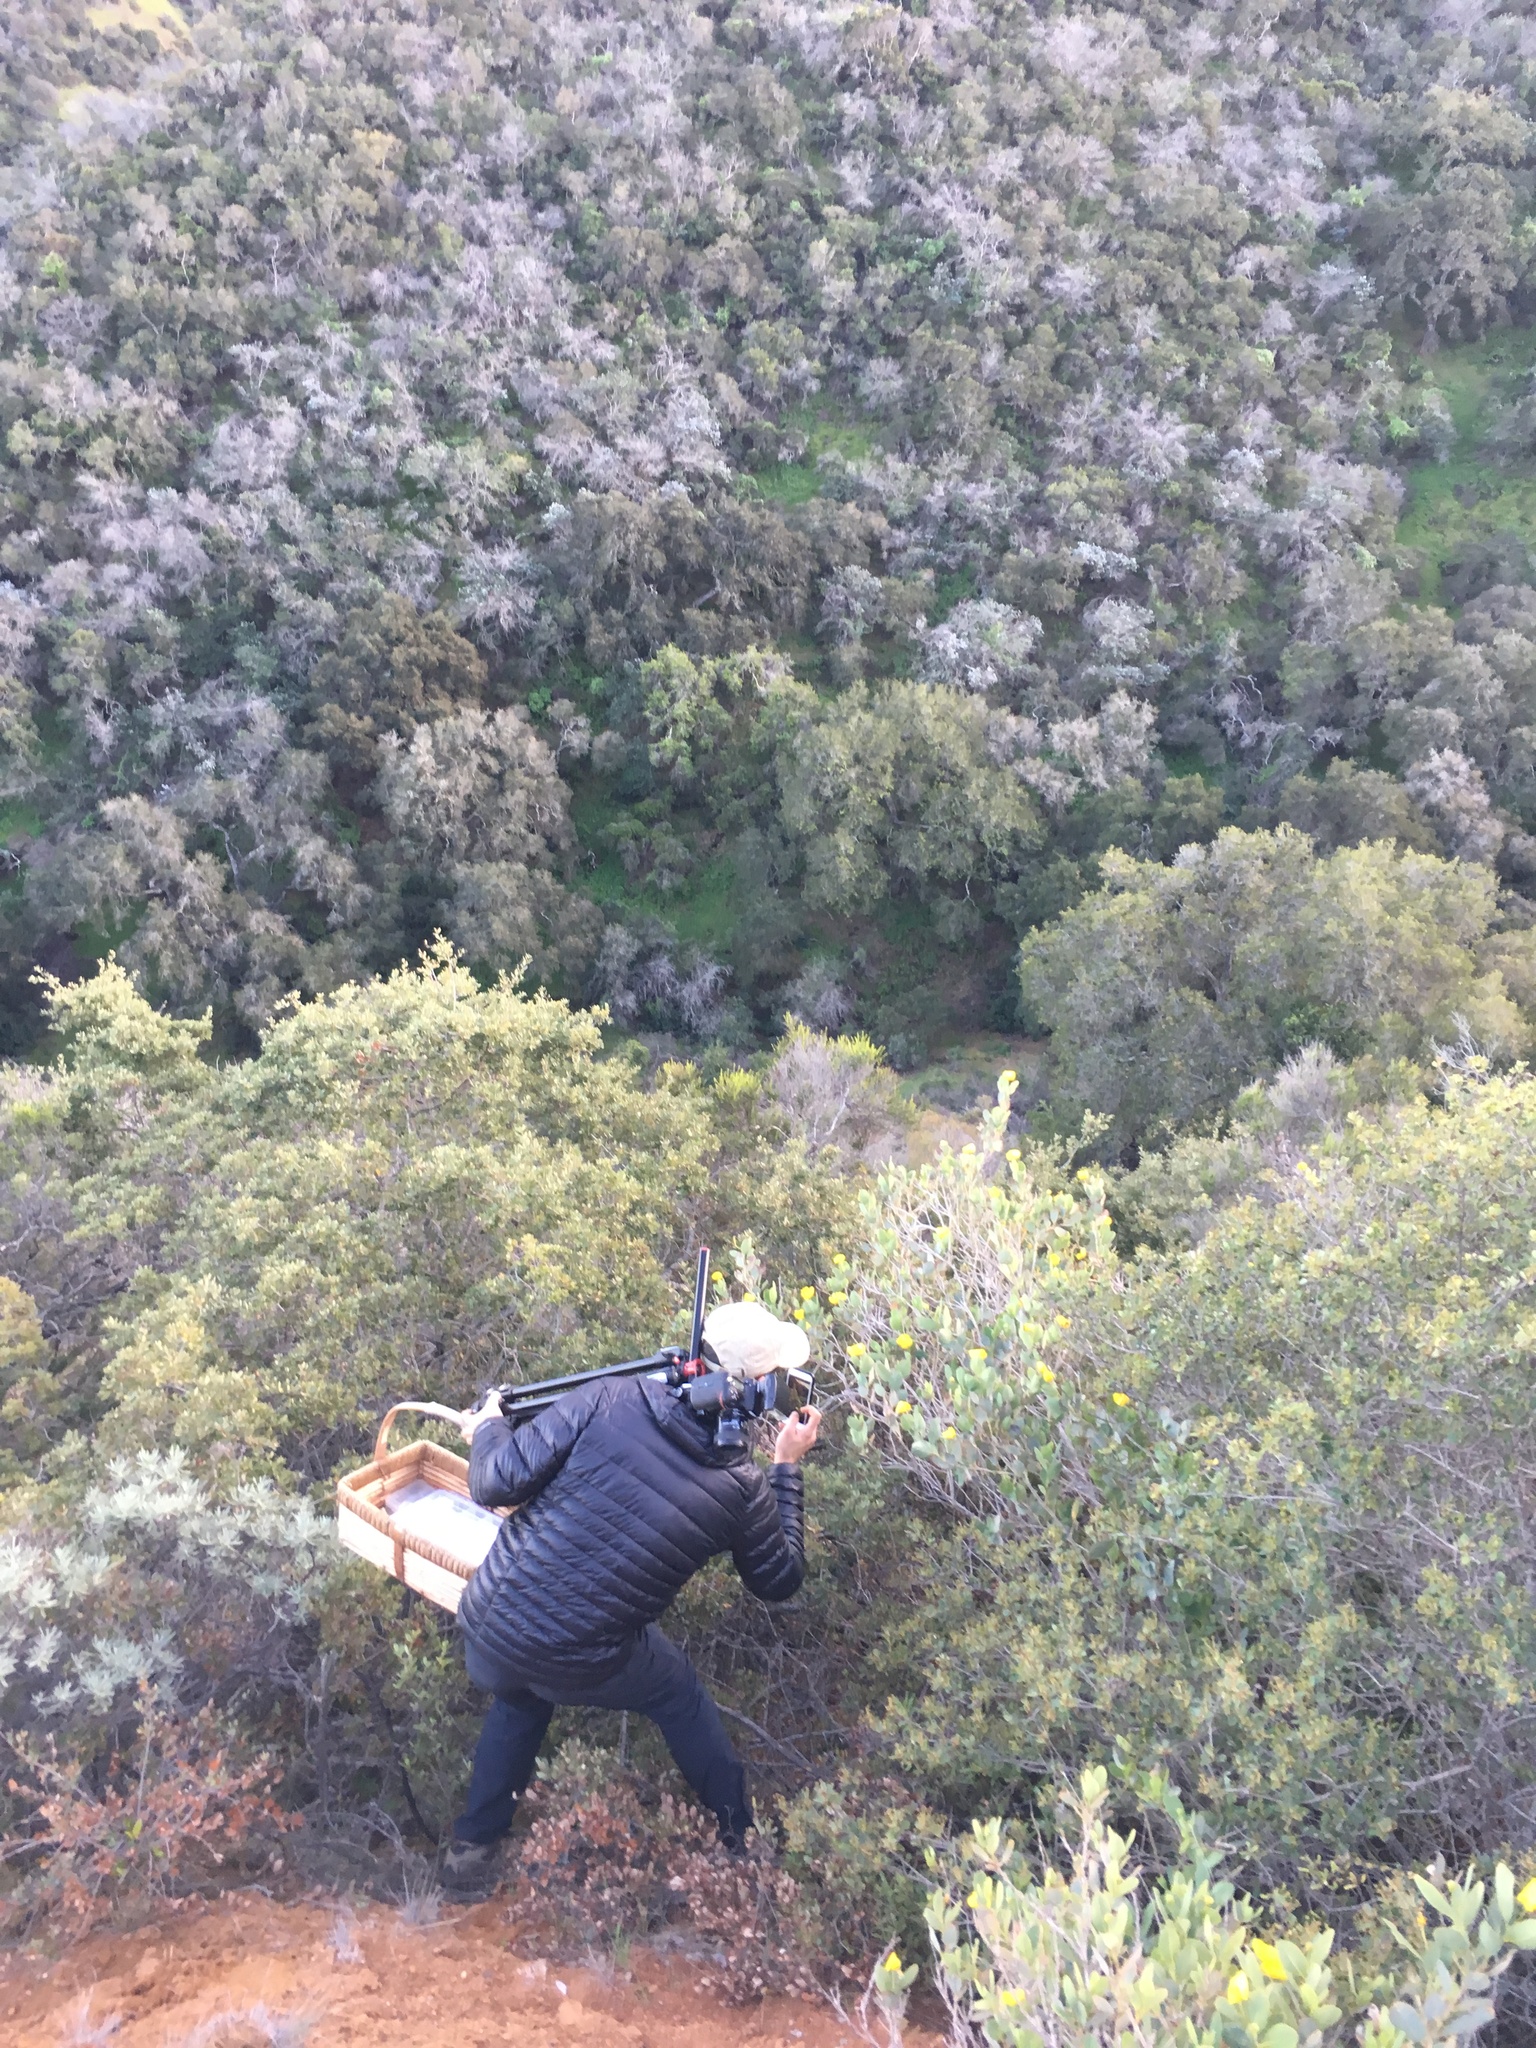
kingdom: Plantae
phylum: Tracheophyta
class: Magnoliopsida
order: Ranunculales
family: Papaveraceae
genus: Dendromecon
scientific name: Dendromecon harfordii
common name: Island tree-poppy
